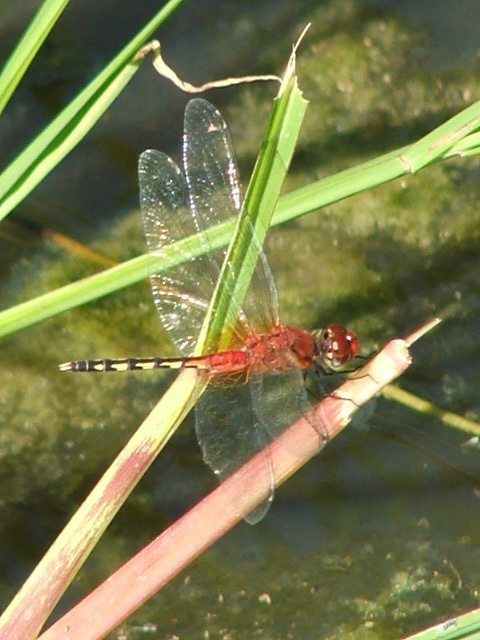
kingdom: Animalia
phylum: Arthropoda
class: Insecta
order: Odonata
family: Libellulidae
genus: Diplacodes
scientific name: Diplacodes luminans
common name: Barbet percher
